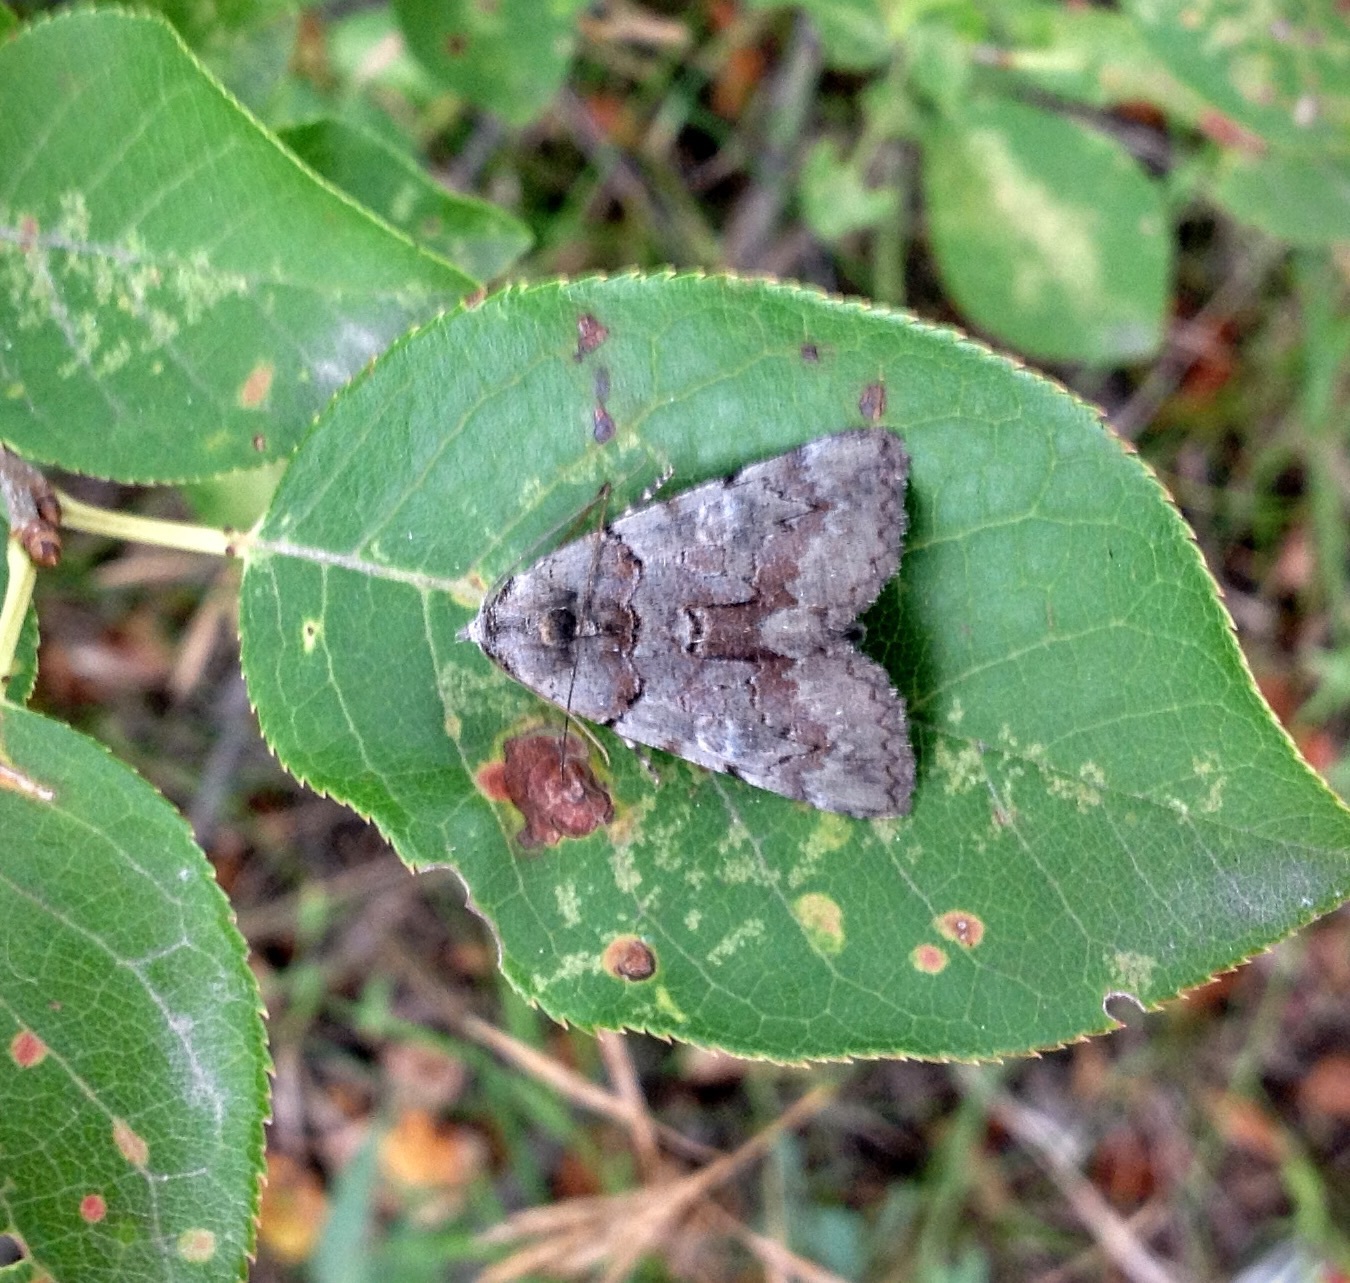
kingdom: Animalia
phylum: Arthropoda
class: Insecta
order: Lepidoptera
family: Erebidae
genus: Catocala
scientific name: Catocala praeclara
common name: Praeclara underwing
